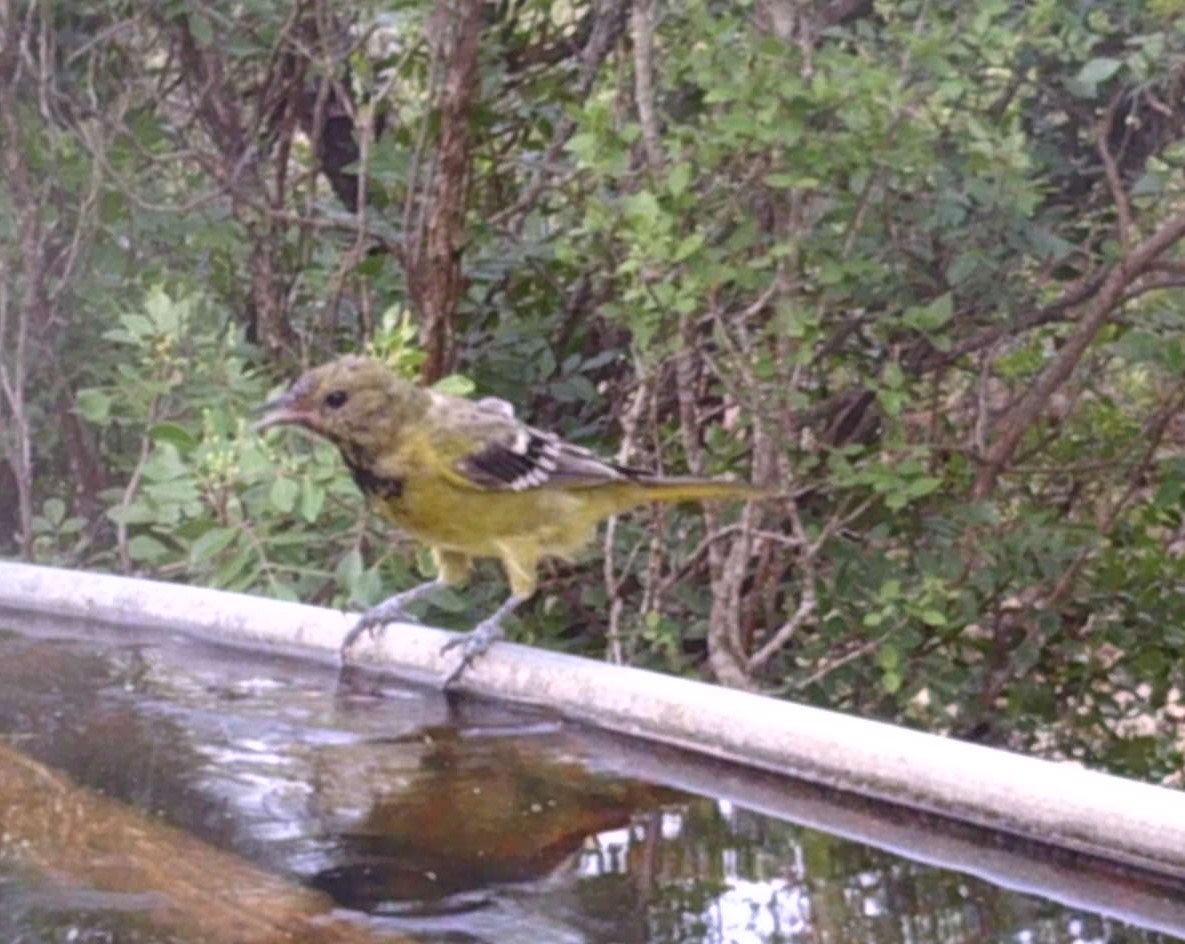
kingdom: Animalia
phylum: Chordata
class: Aves
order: Passeriformes
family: Icteridae
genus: Icterus
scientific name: Icterus parisorum
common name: Scott's oriole
